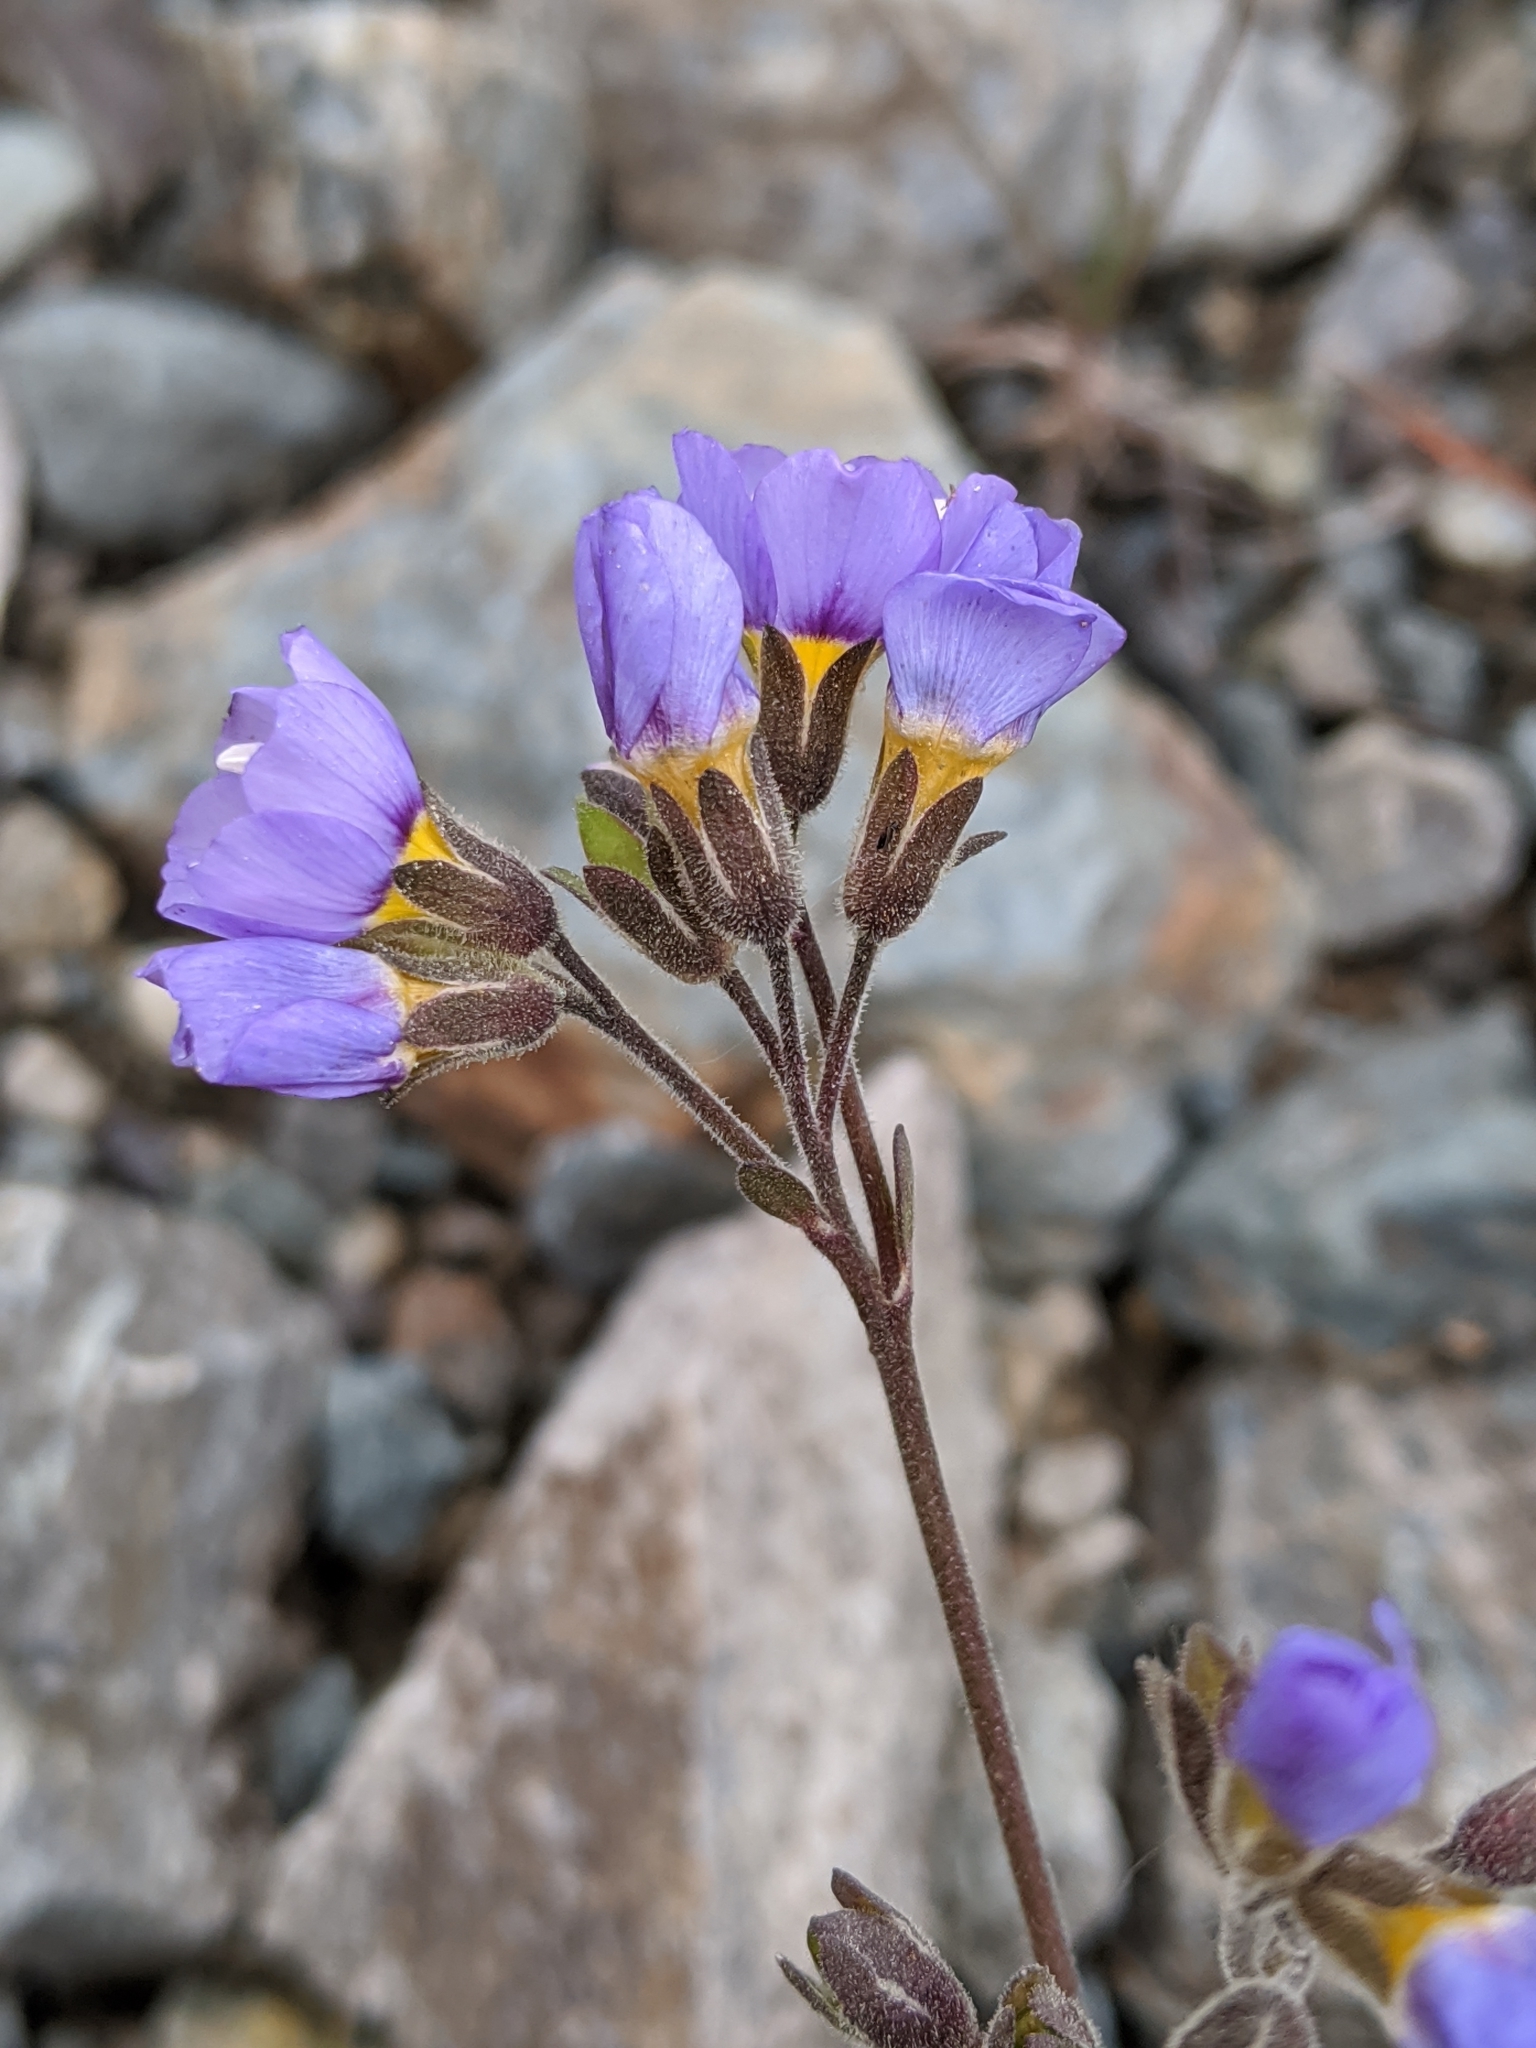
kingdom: Plantae
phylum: Tracheophyta
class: Magnoliopsida
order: Ericales
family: Polemoniaceae
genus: Polemonium
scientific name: Polemonium pulcherrimum
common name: Short jacob's-ladder
